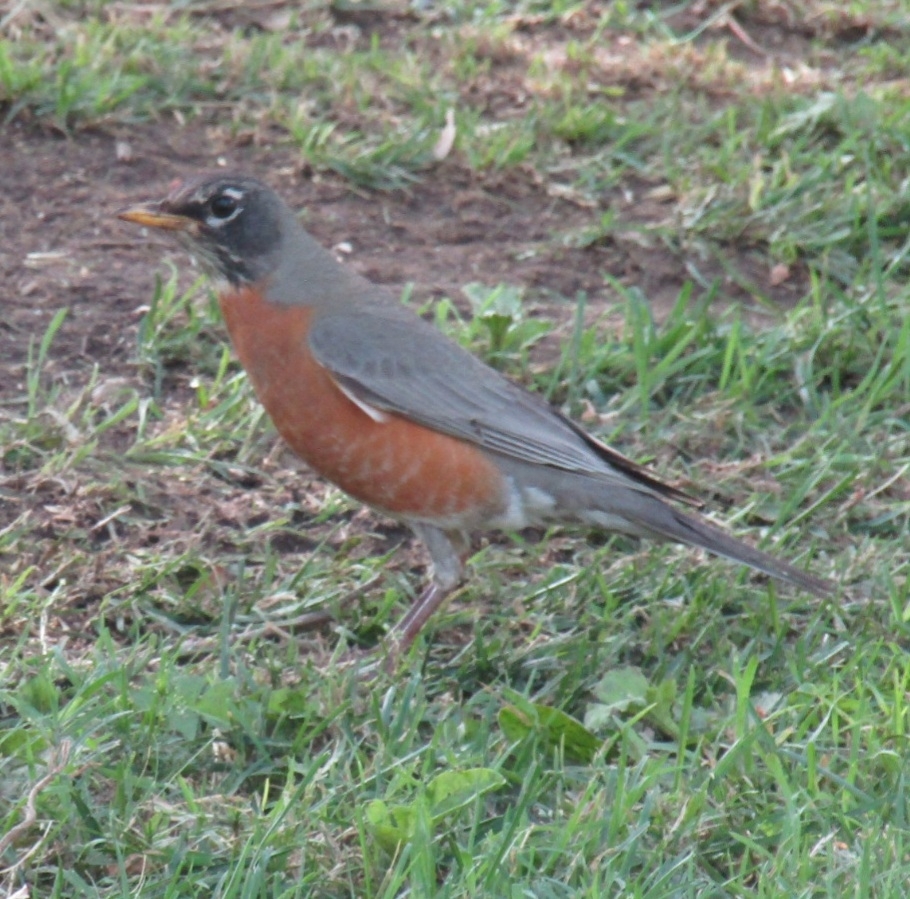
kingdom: Animalia
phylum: Chordata
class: Aves
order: Passeriformes
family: Turdidae
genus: Turdus
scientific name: Turdus migratorius
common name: American robin
